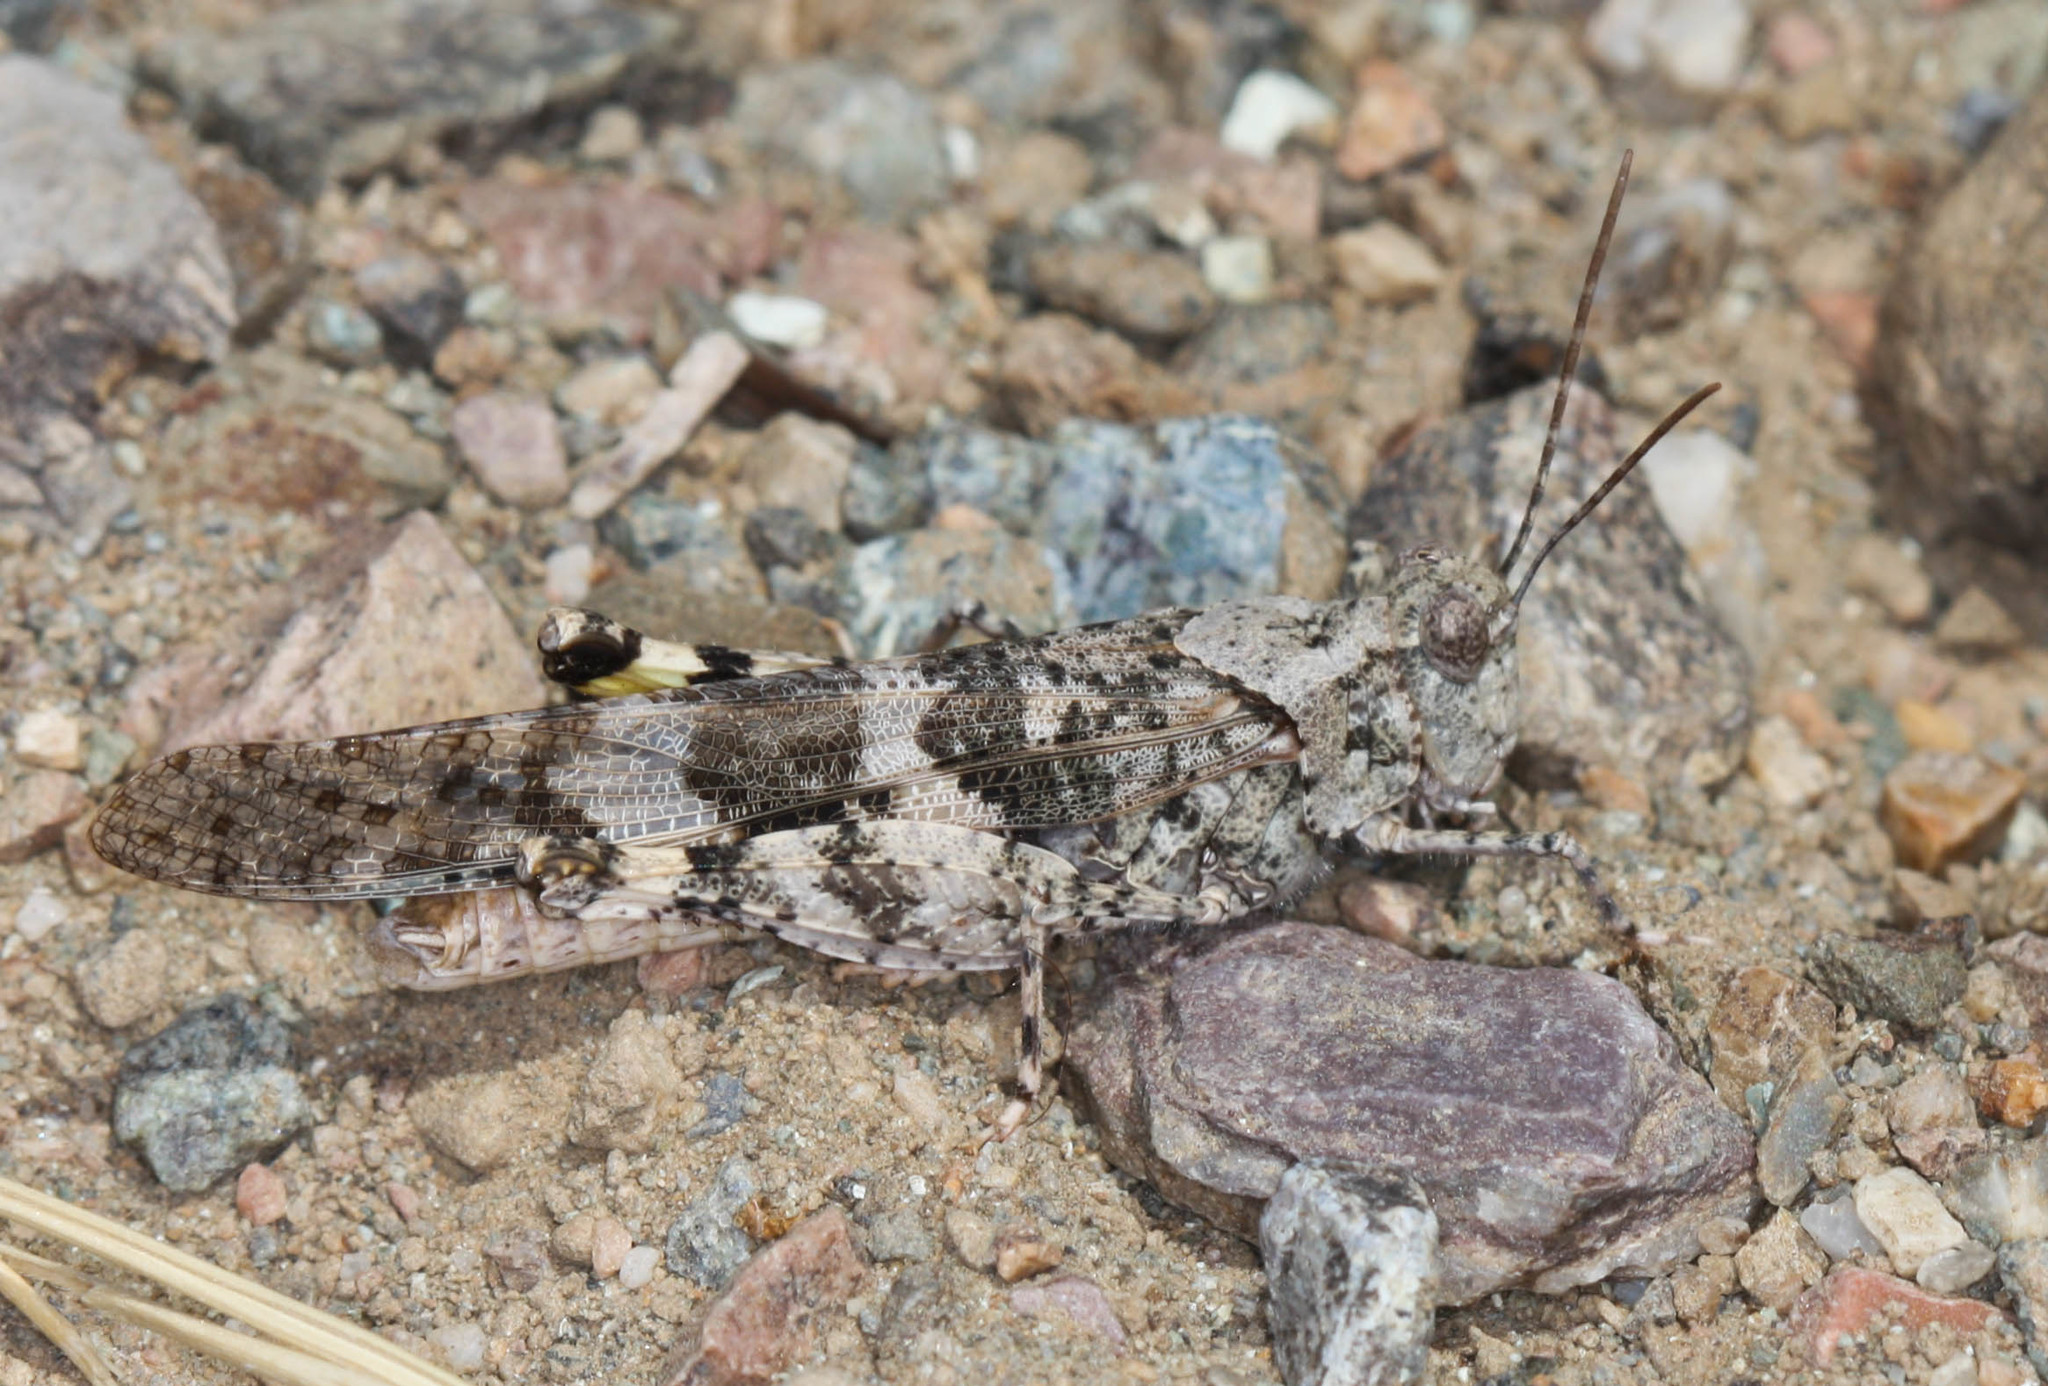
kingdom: Animalia
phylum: Arthropoda
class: Insecta
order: Orthoptera
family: Acrididae
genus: Trimerotropis
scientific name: Trimerotropis pallidipennis
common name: Pallid-winged grasshopper
